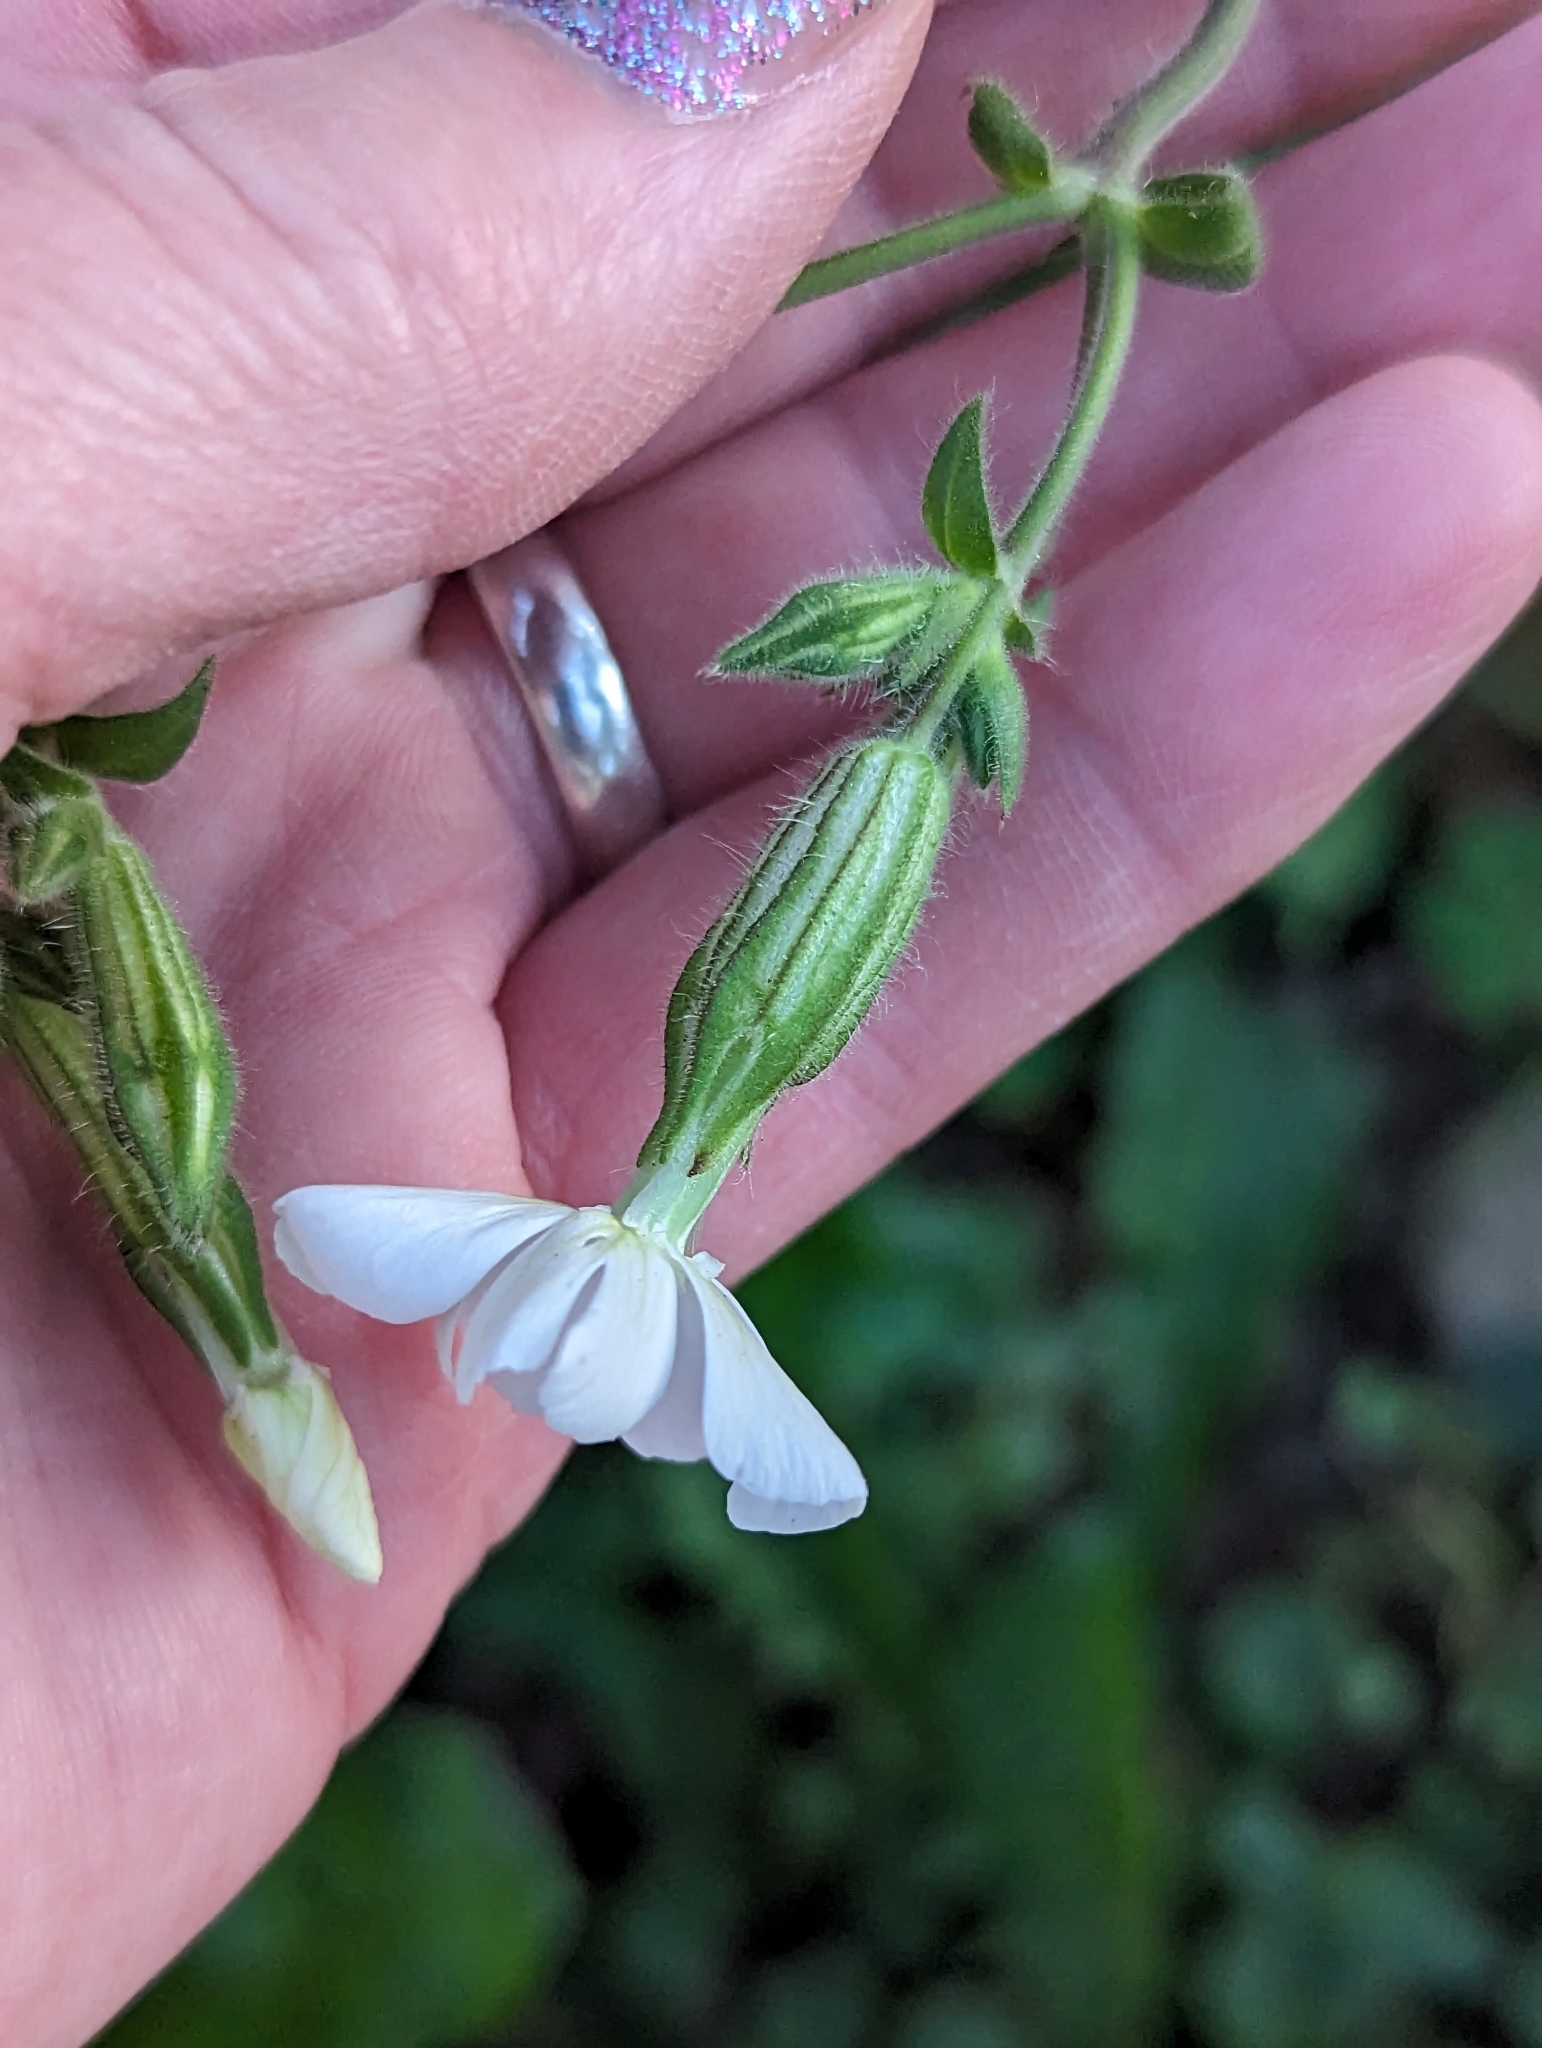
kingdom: Plantae
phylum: Tracheophyta
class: Magnoliopsida
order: Caryophyllales
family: Caryophyllaceae
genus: Silene
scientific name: Silene latifolia
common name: White campion
